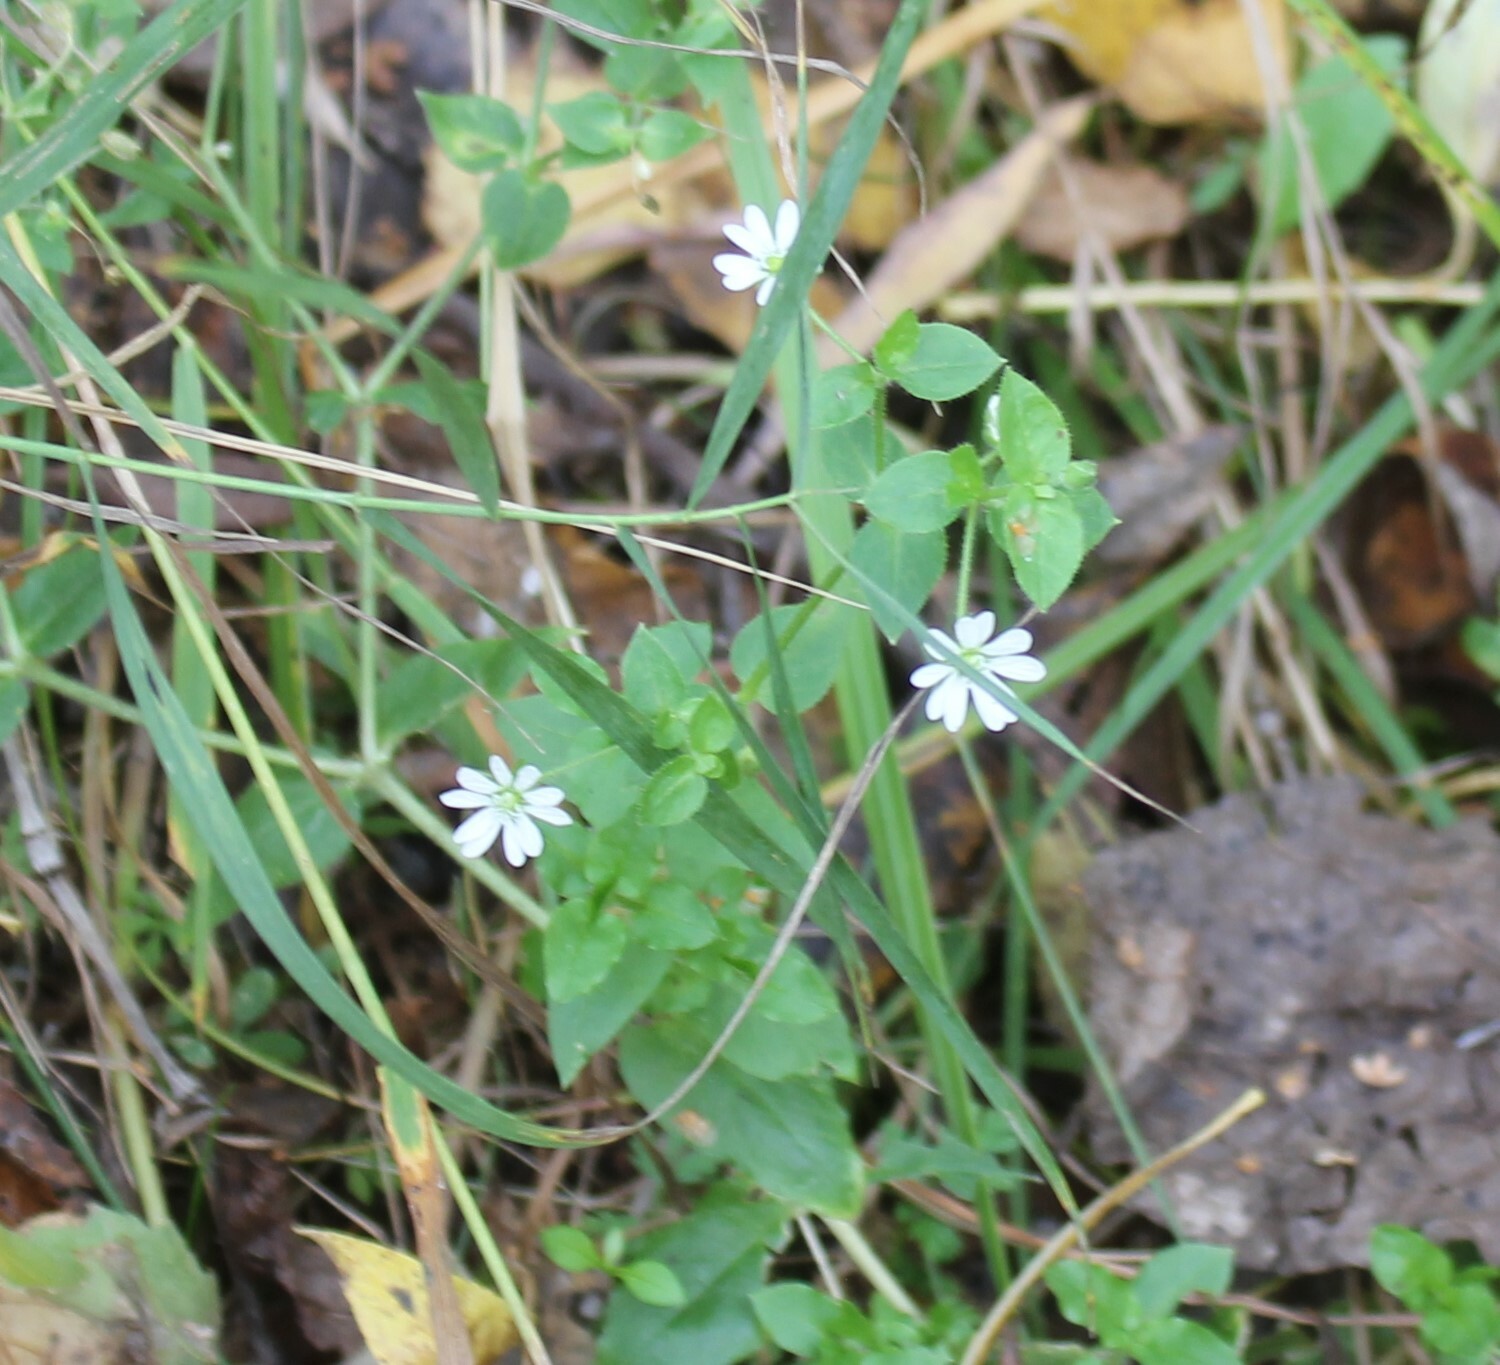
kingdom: Plantae
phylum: Tracheophyta
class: Magnoliopsida
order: Caryophyllales
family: Caryophyllaceae
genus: Stellaria
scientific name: Stellaria aquatica
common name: Water chickweed
